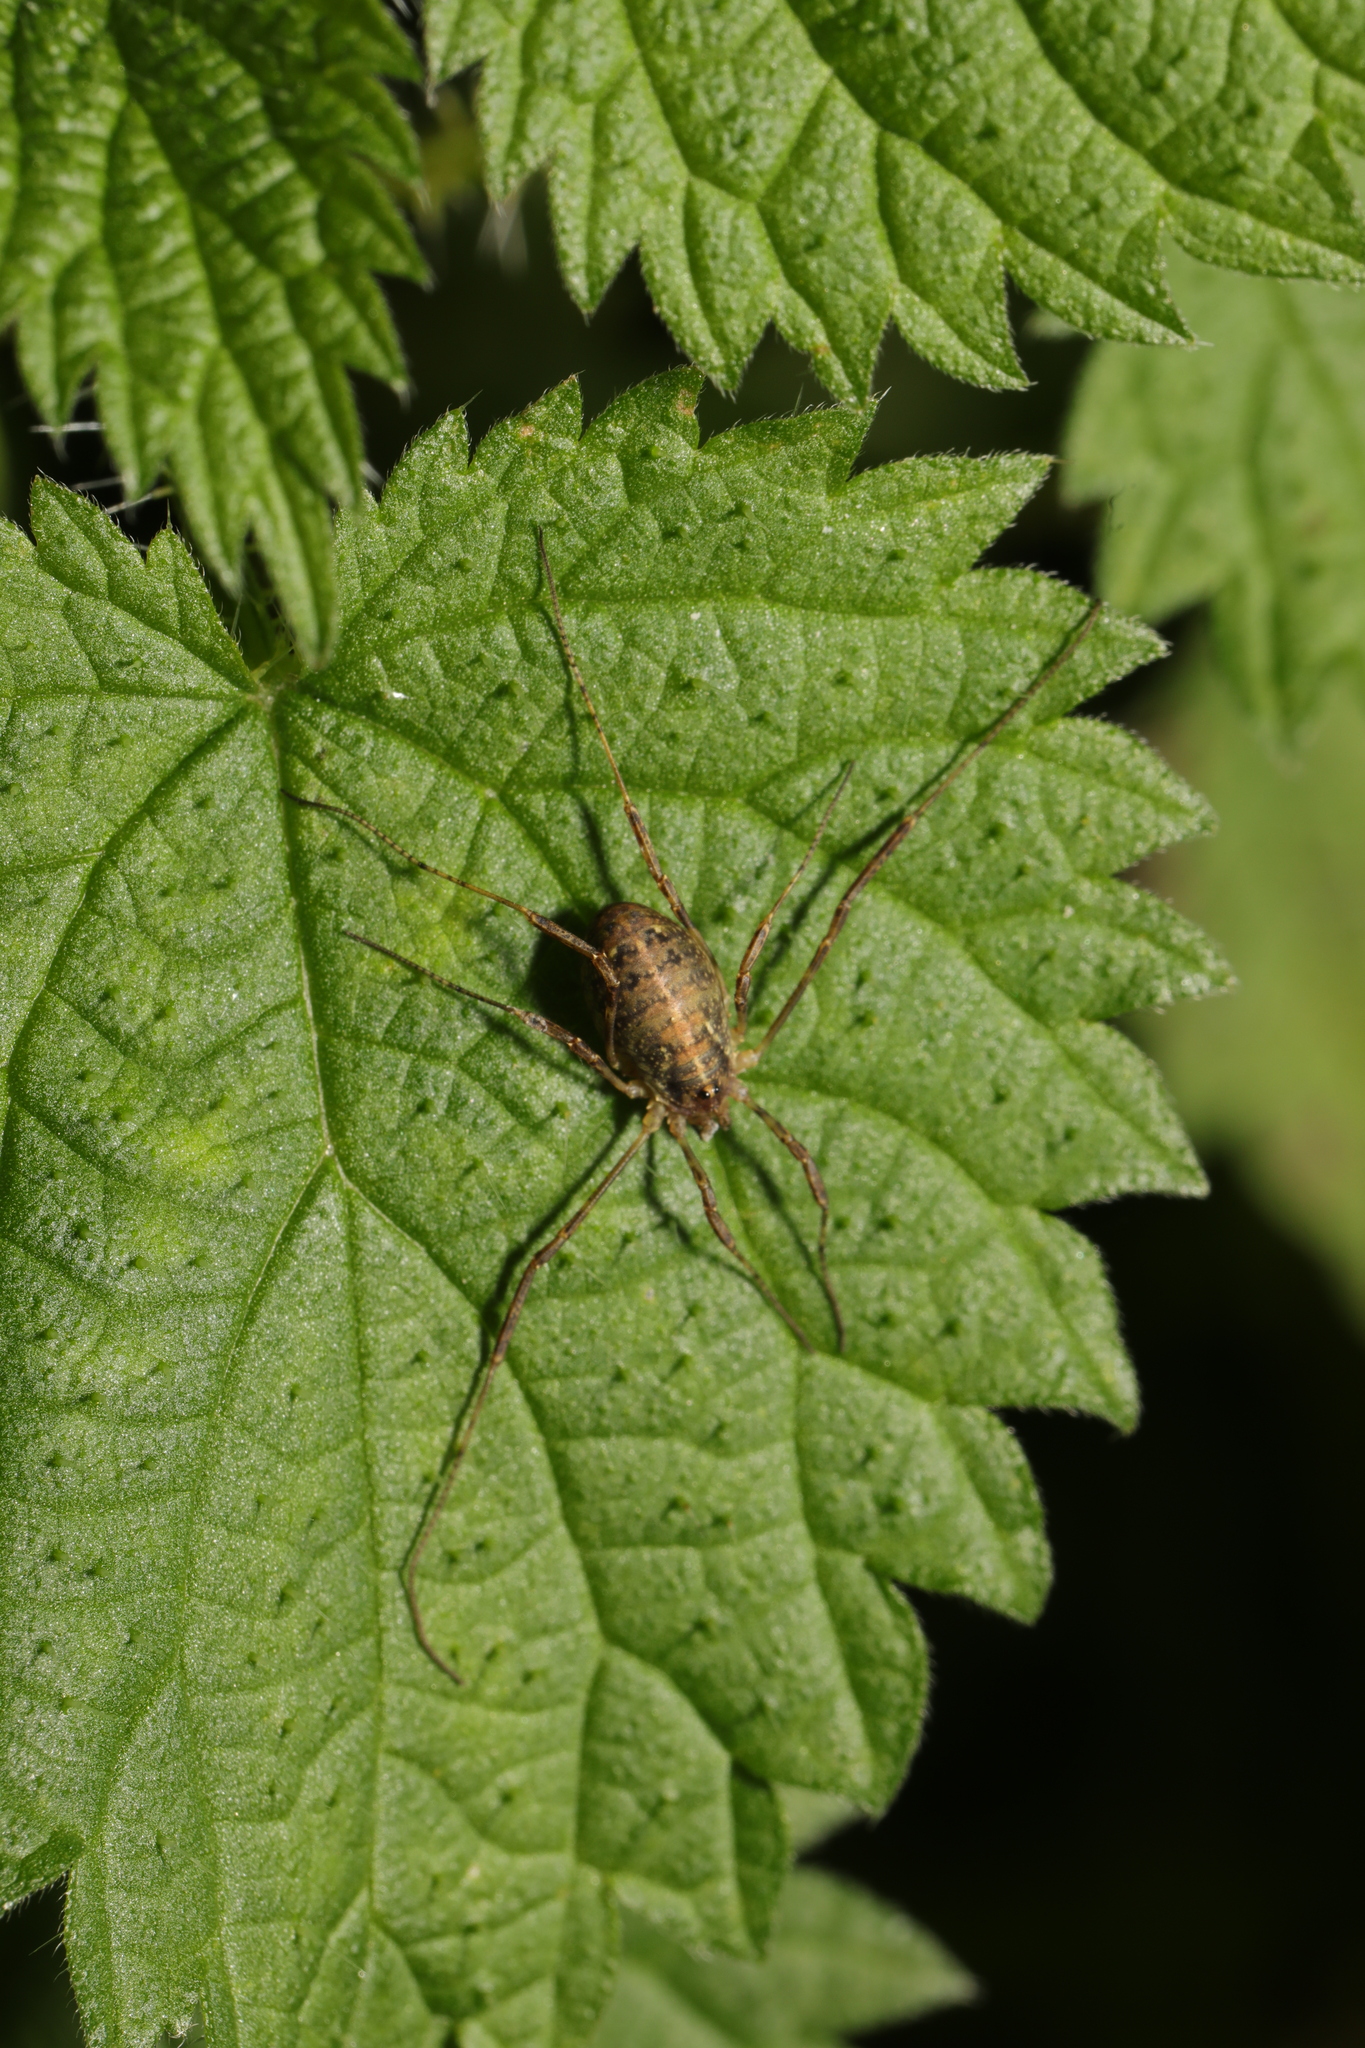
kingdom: Animalia
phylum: Arthropoda
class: Arachnida
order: Opiliones
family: Phalangiidae
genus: Paroligolophus
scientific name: Paroligolophus agrestis
